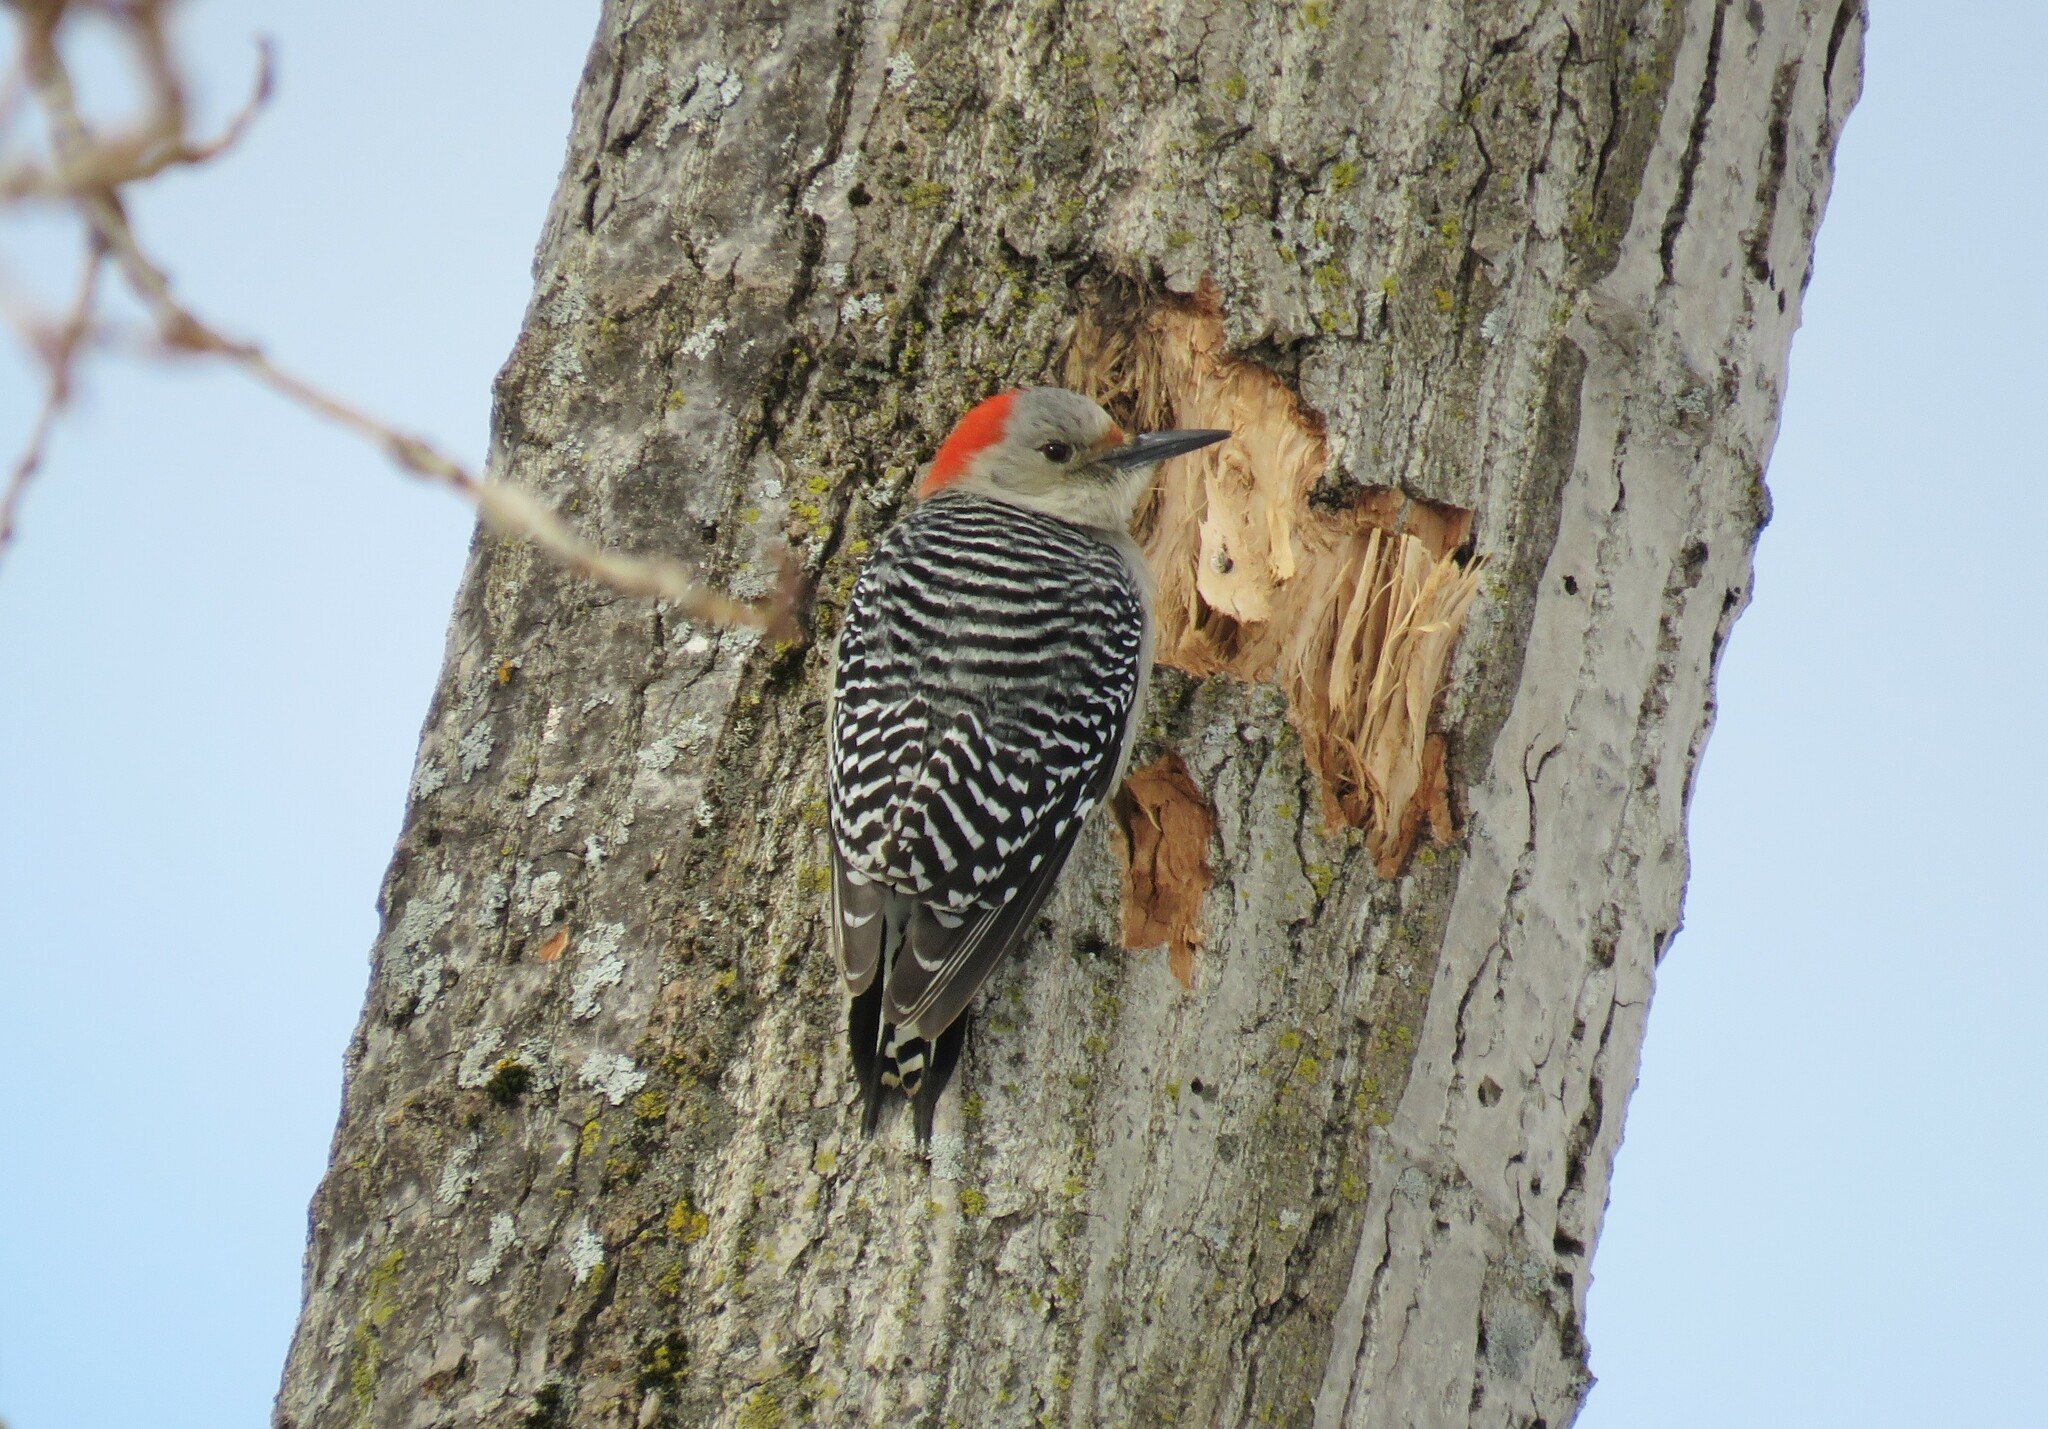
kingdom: Animalia
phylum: Chordata
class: Aves
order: Piciformes
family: Picidae
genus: Melanerpes
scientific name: Melanerpes carolinus
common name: Red-bellied woodpecker
